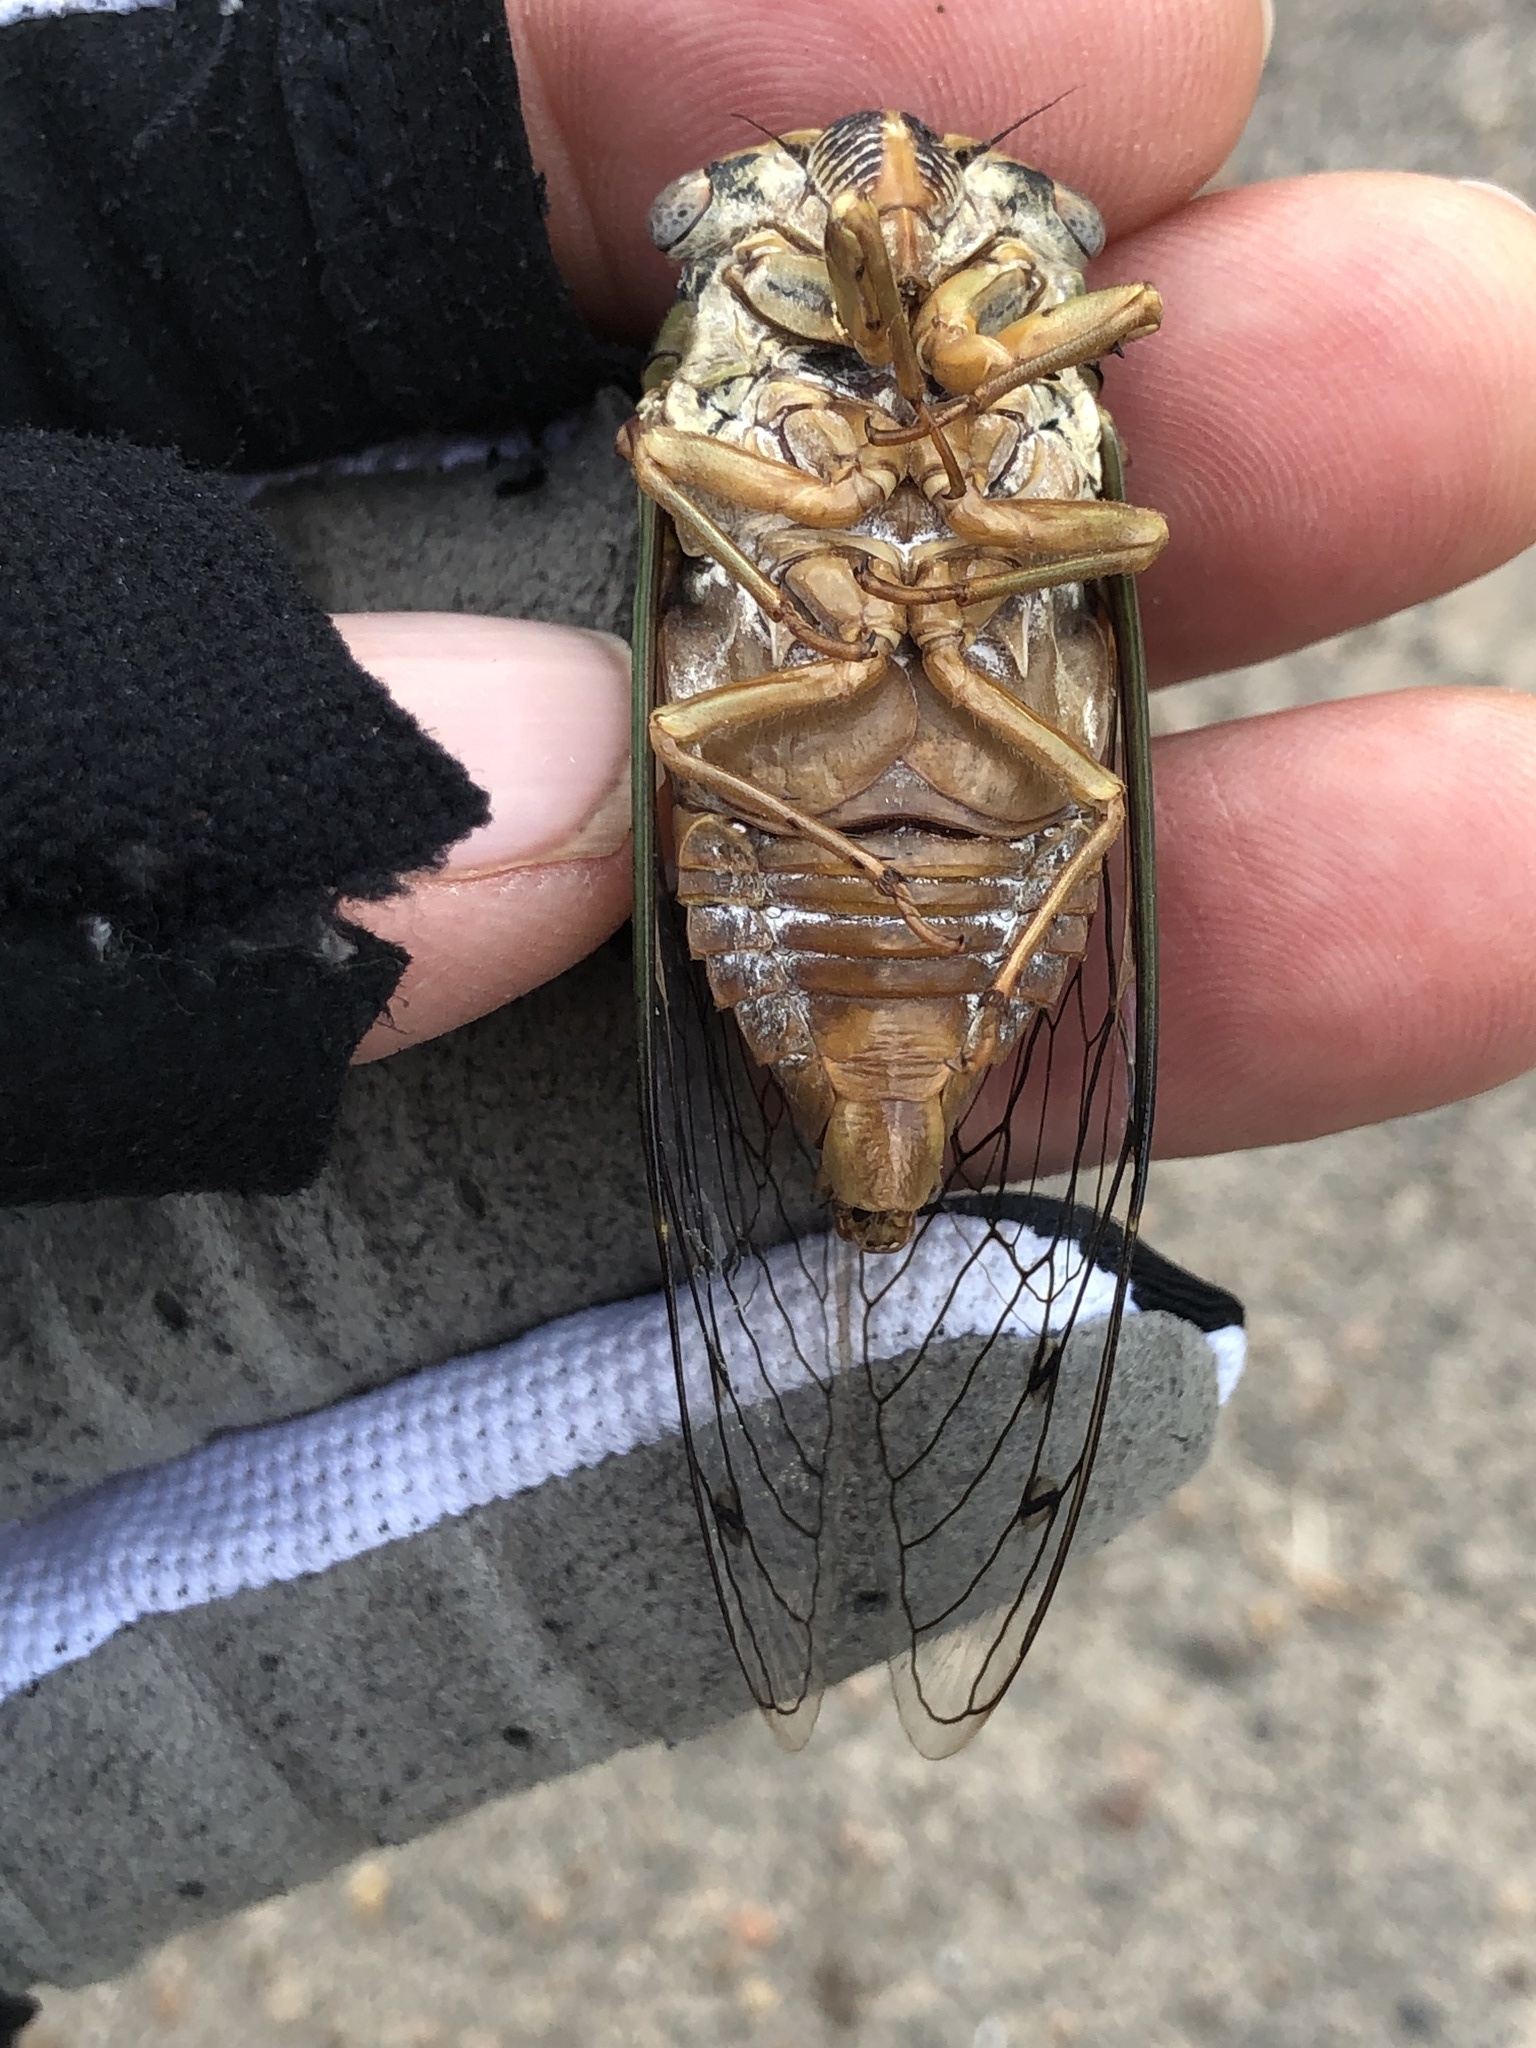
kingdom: Animalia
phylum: Arthropoda
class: Insecta
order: Hemiptera
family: Cicadidae
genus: Megatibicen
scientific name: Megatibicen resh
